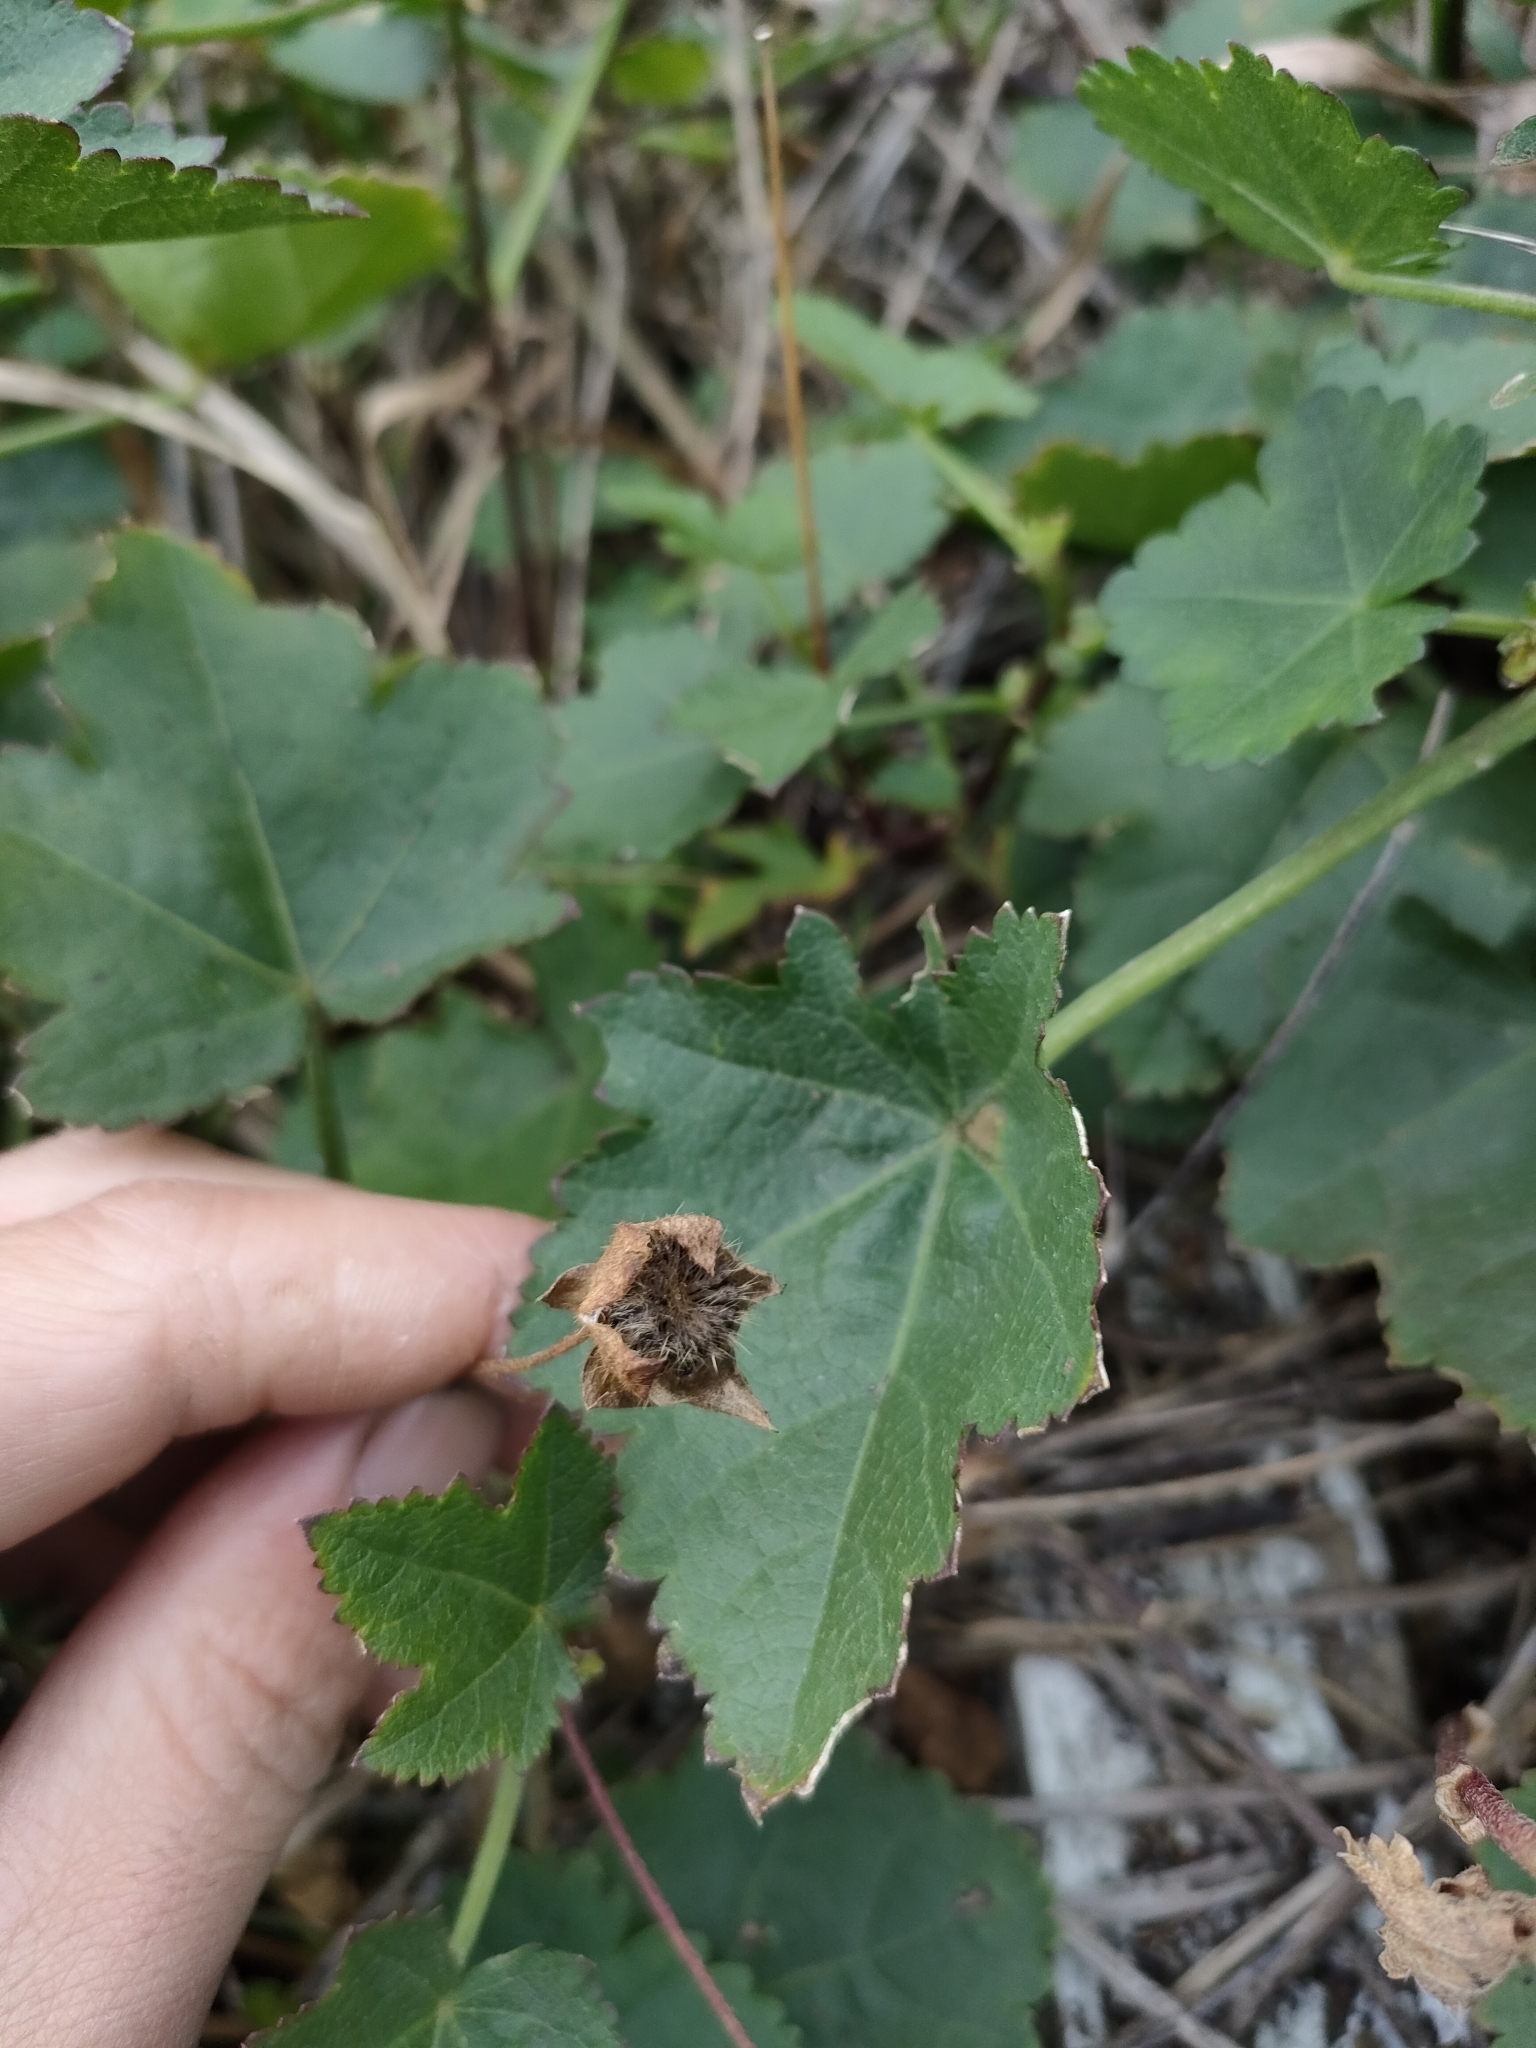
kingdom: Plantae
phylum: Tracheophyta
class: Magnoliopsida
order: Malvales
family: Malvaceae
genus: Modiolastrum
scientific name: Modiolastrum lateritium
